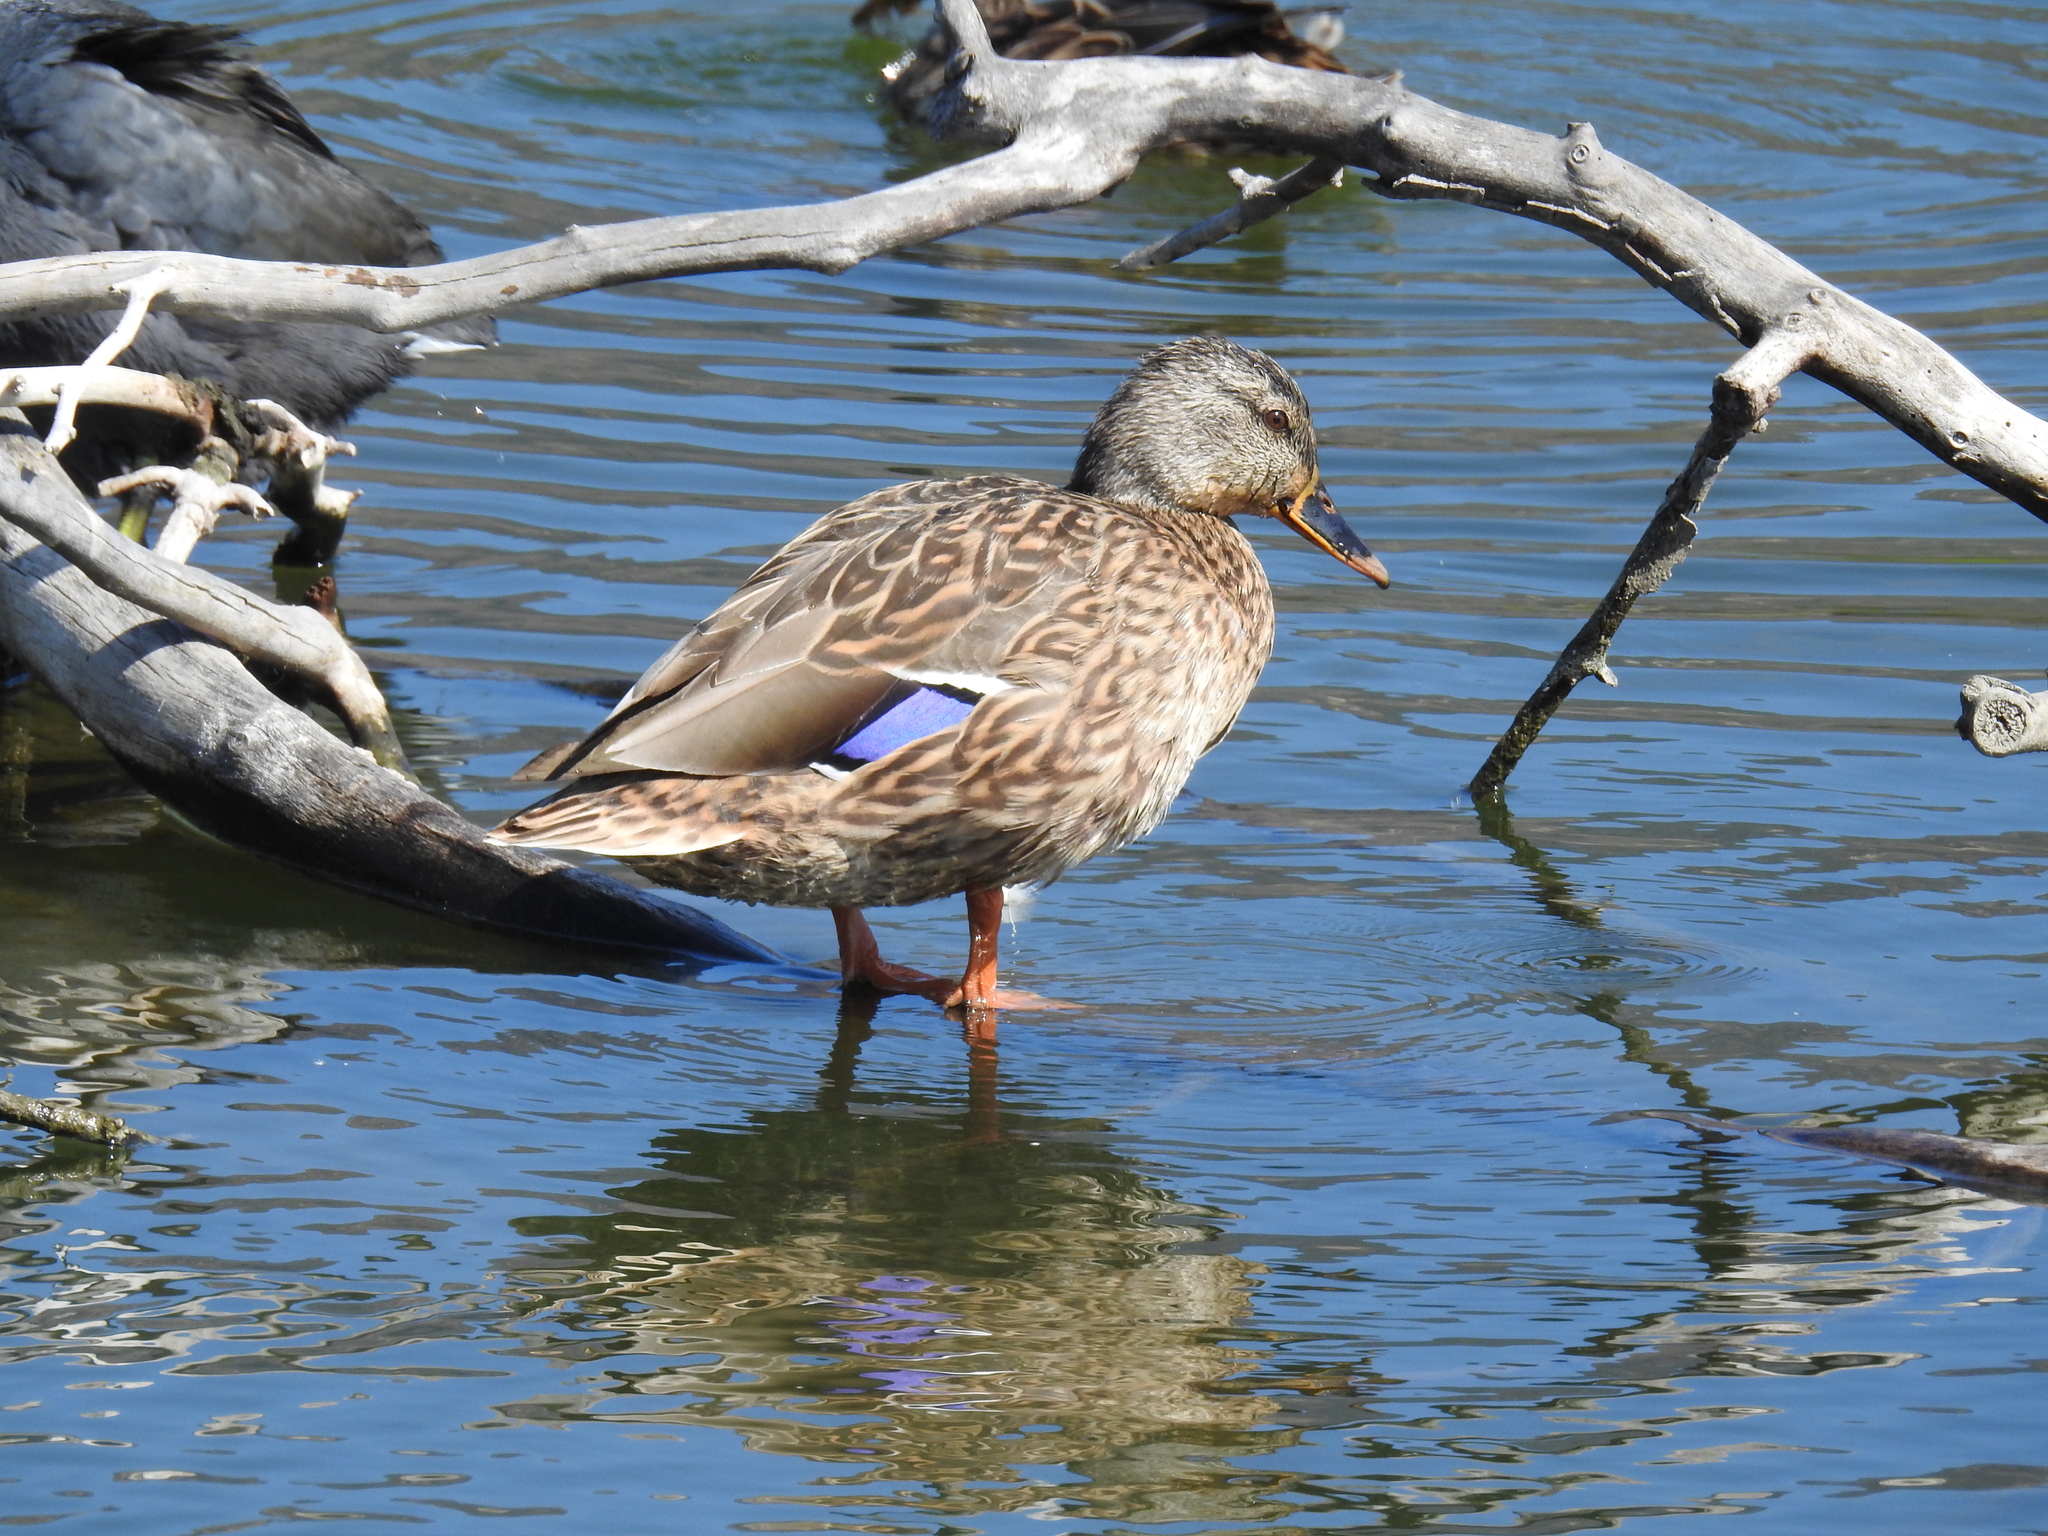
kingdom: Animalia
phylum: Chordata
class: Aves
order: Anseriformes
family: Anatidae
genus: Anas
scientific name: Anas platyrhynchos
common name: Mallard
